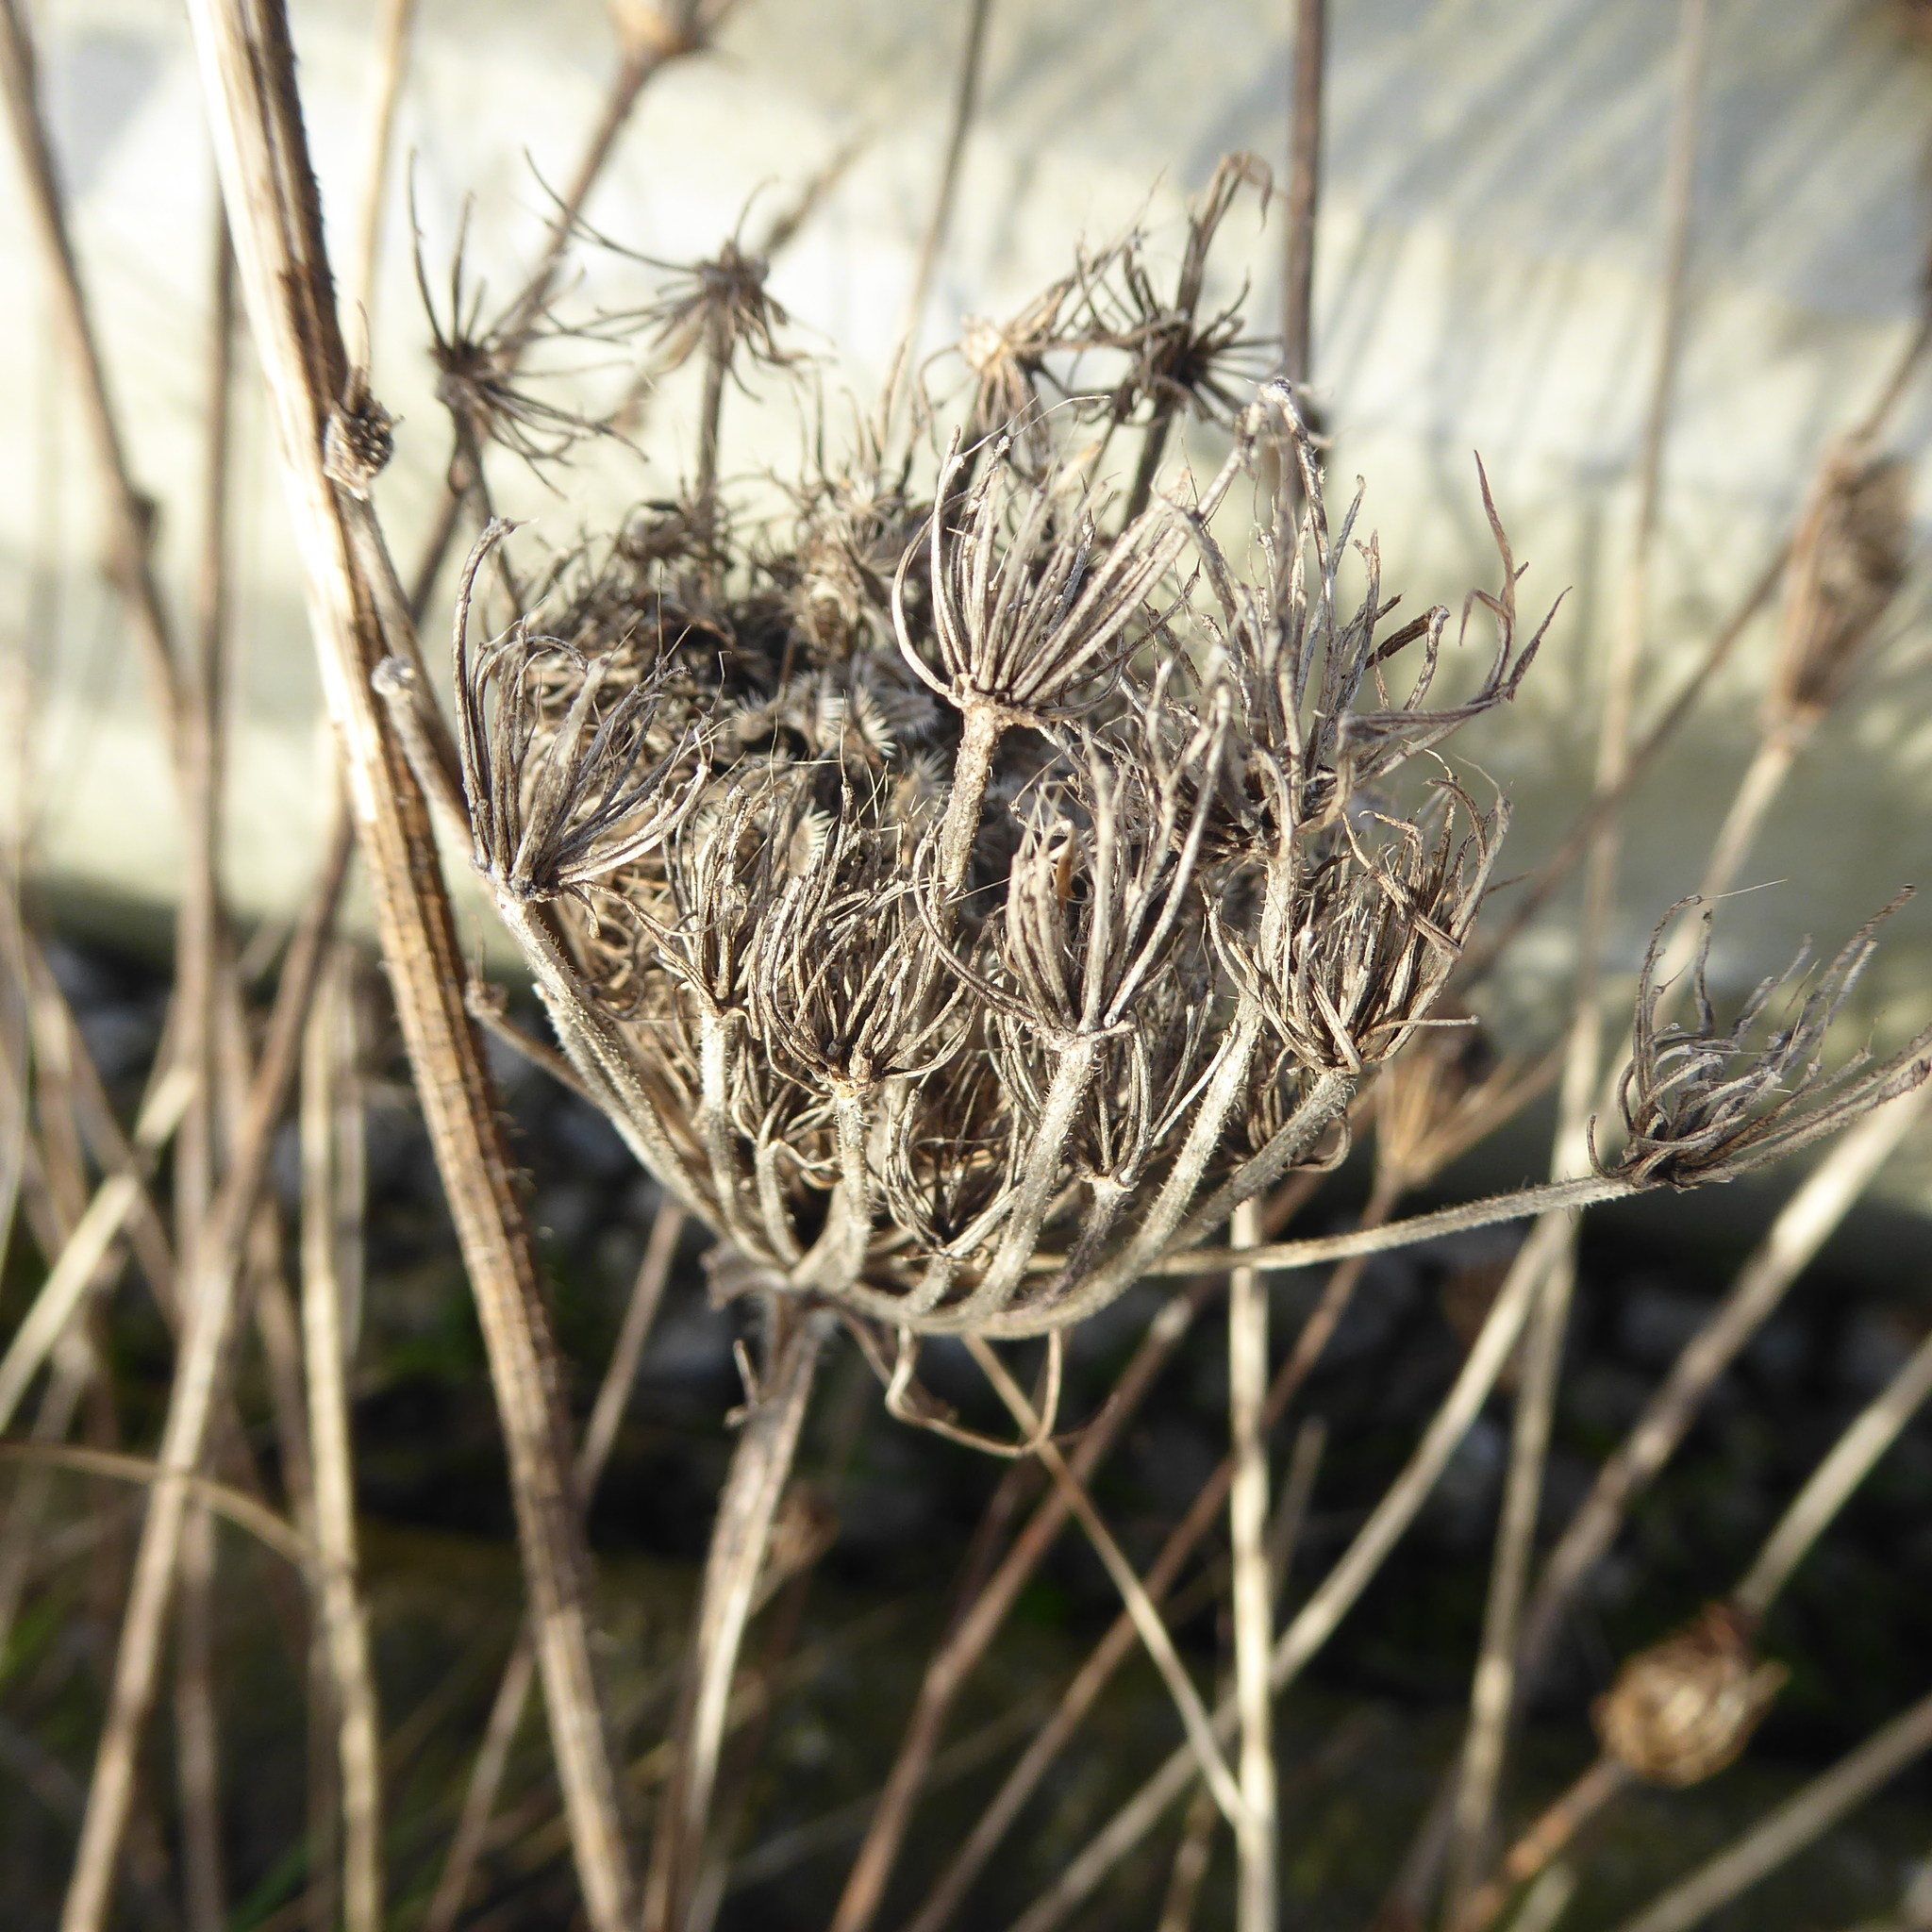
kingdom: Plantae
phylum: Tracheophyta
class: Magnoliopsida
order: Apiales
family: Apiaceae
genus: Daucus
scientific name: Daucus carota
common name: Wild carrot
